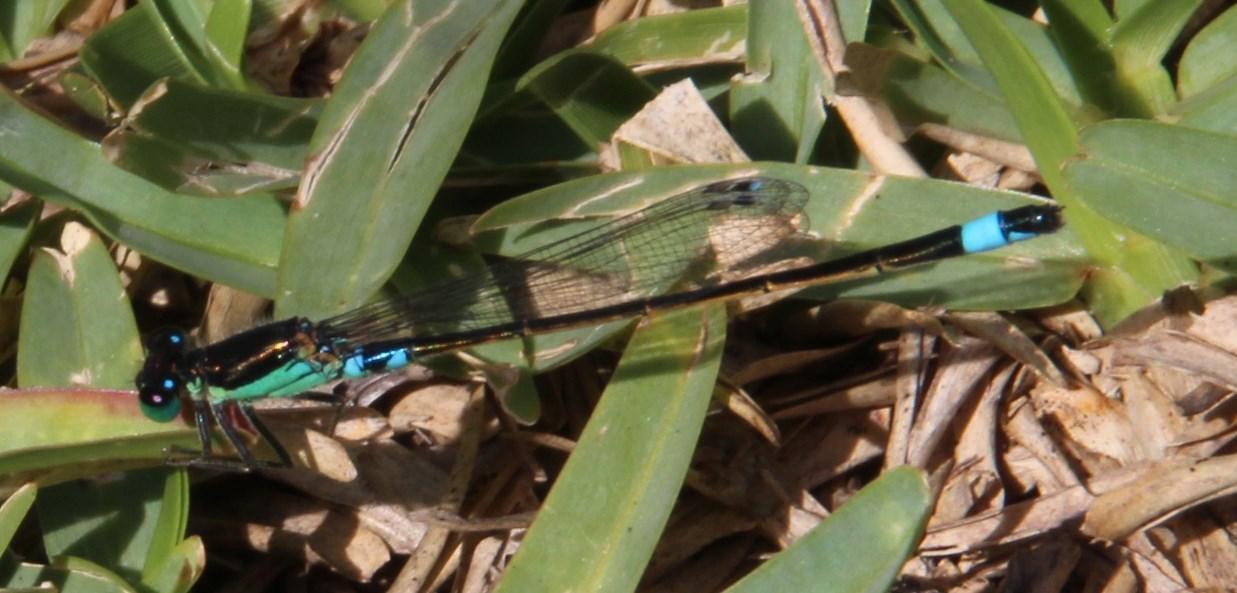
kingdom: Animalia
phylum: Arthropoda
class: Insecta
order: Odonata
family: Coenagrionidae
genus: Ischnura
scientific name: Ischnura senegalensis
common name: Tropical bluetail
